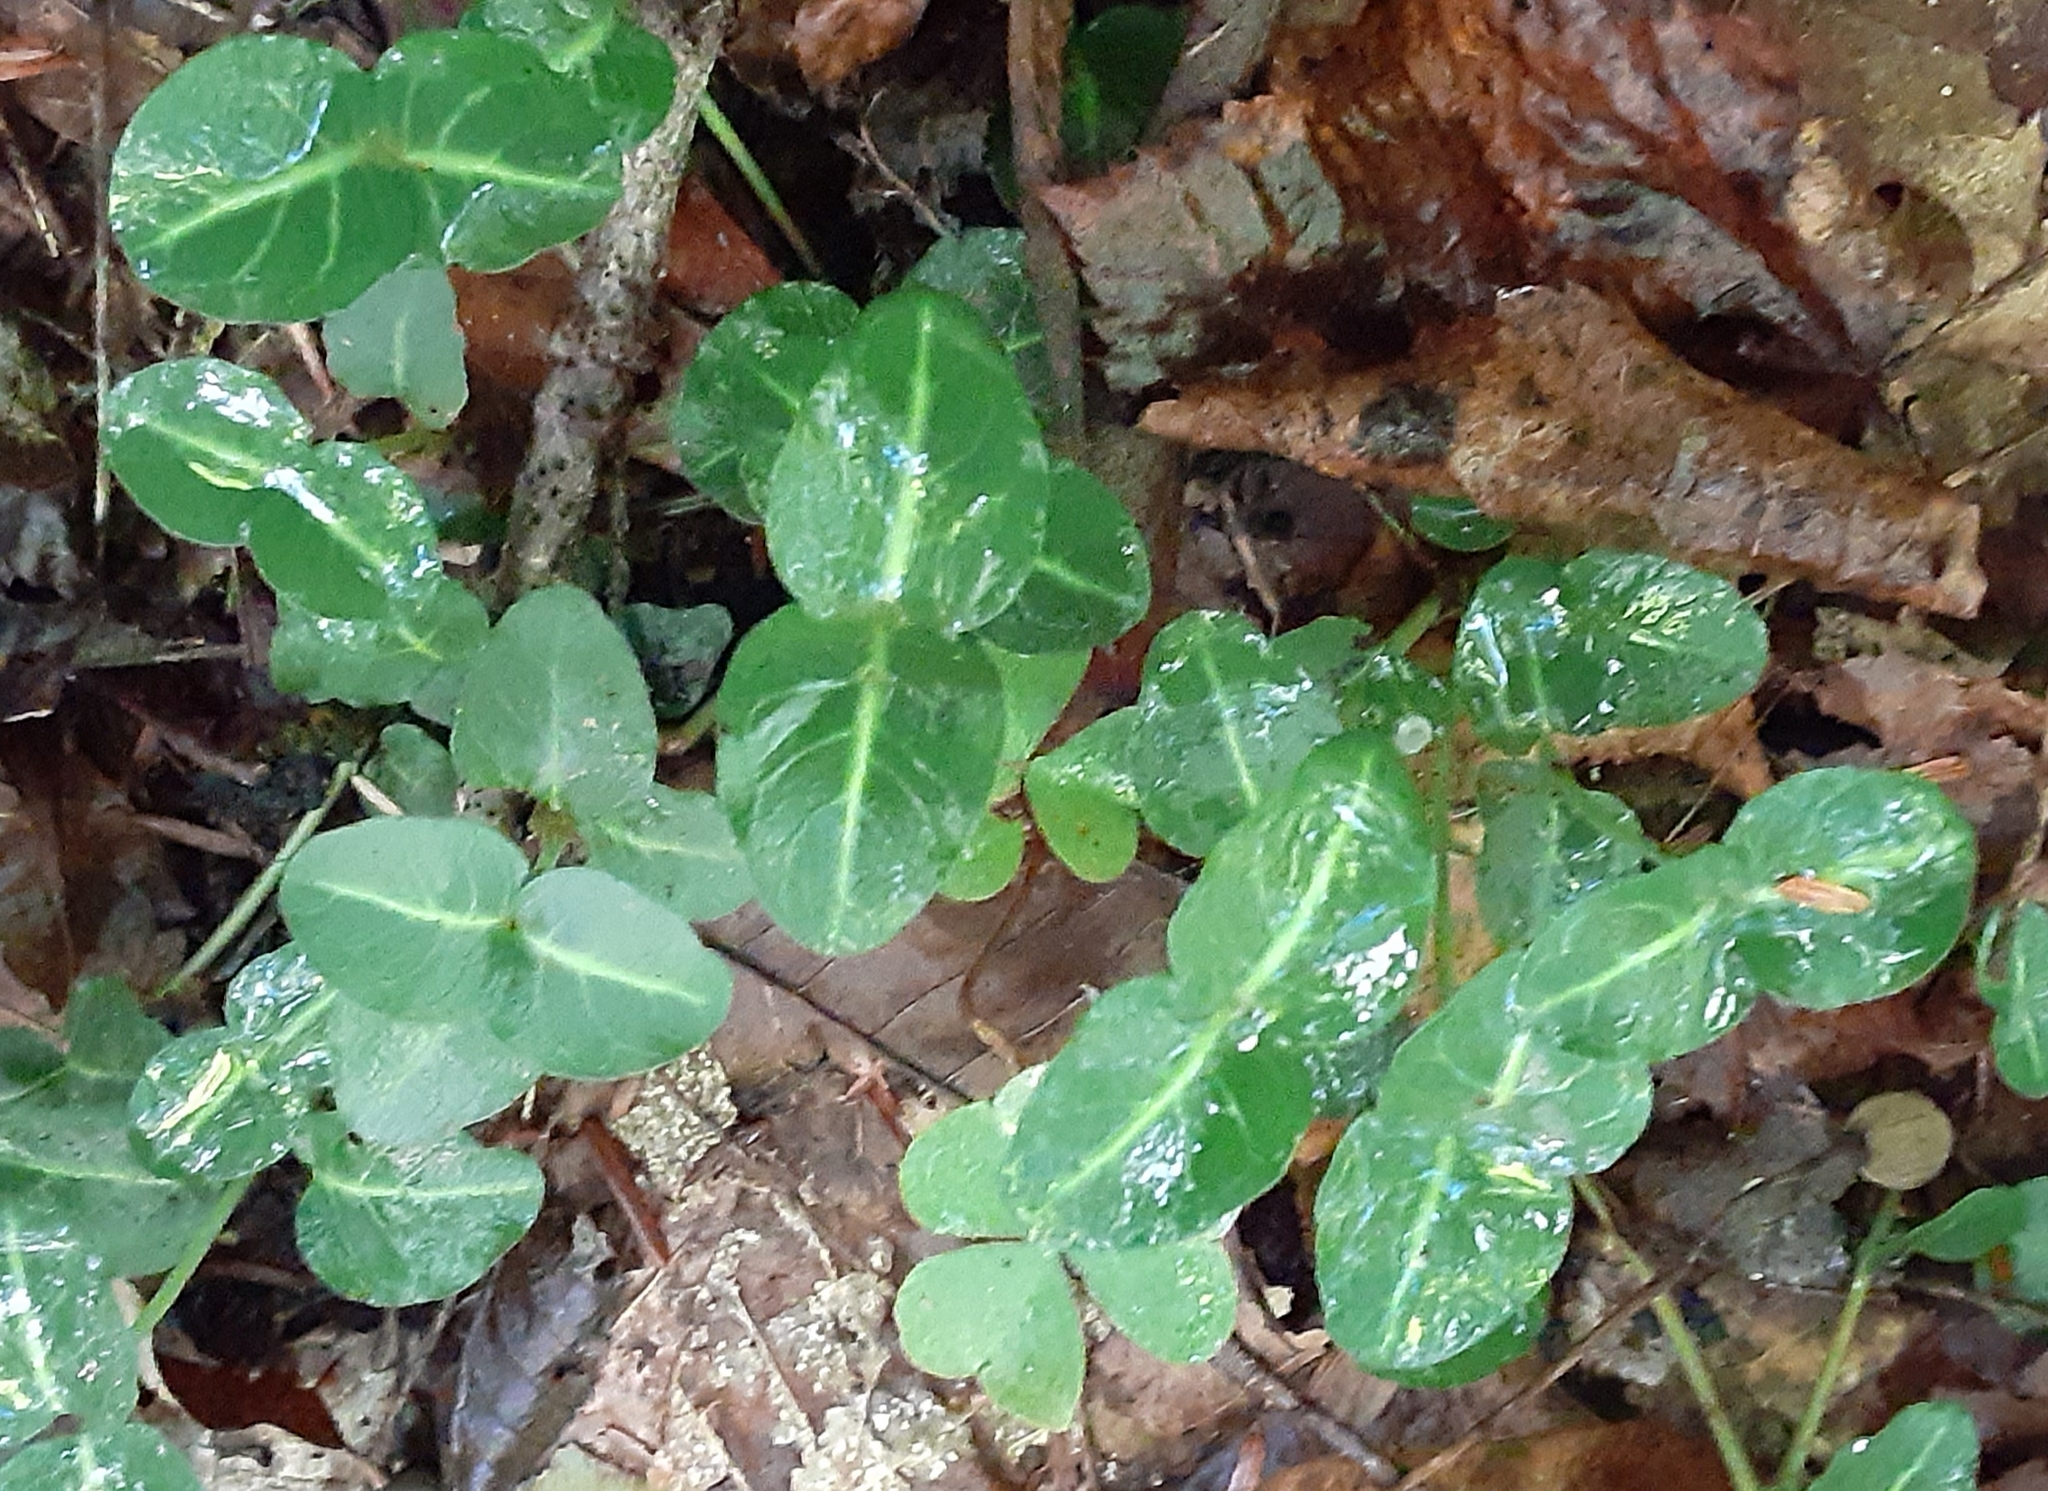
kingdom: Plantae
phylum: Tracheophyta
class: Magnoliopsida
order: Gentianales
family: Rubiaceae
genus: Mitchella
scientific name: Mitchella repens
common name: Partridge-berry
